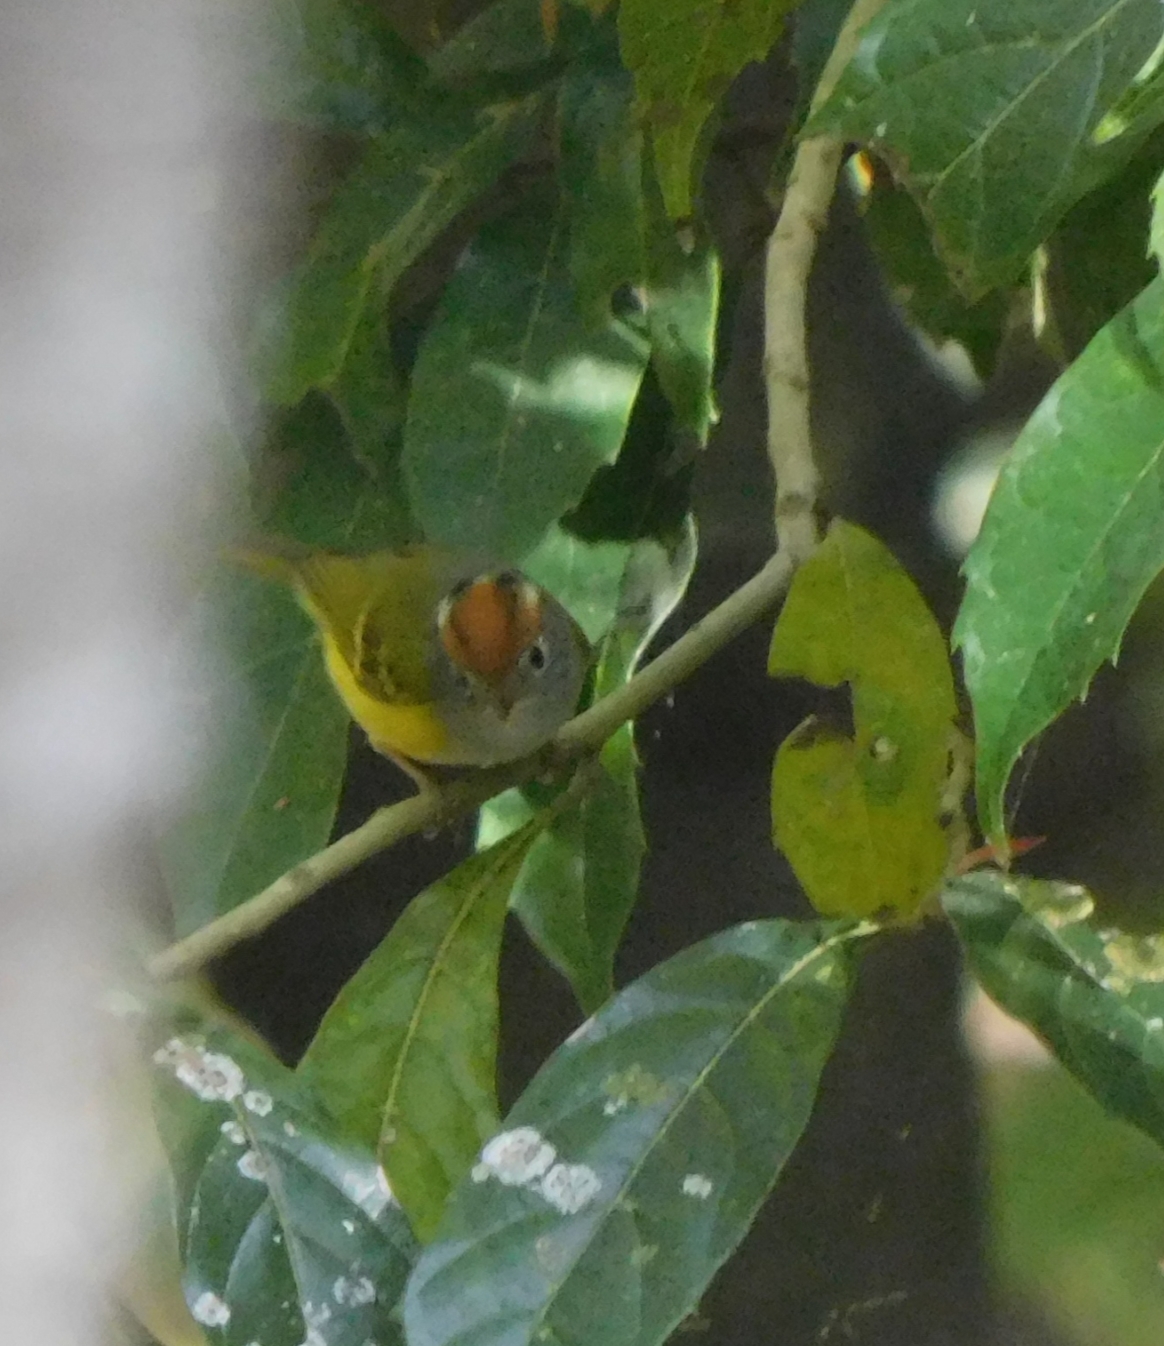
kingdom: Animalia
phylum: Chordata
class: Aves
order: Passeriformes
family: Phylloscopidae
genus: Seicercus
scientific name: Seicercus castaniceps
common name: Chestnut-crowned warbler
